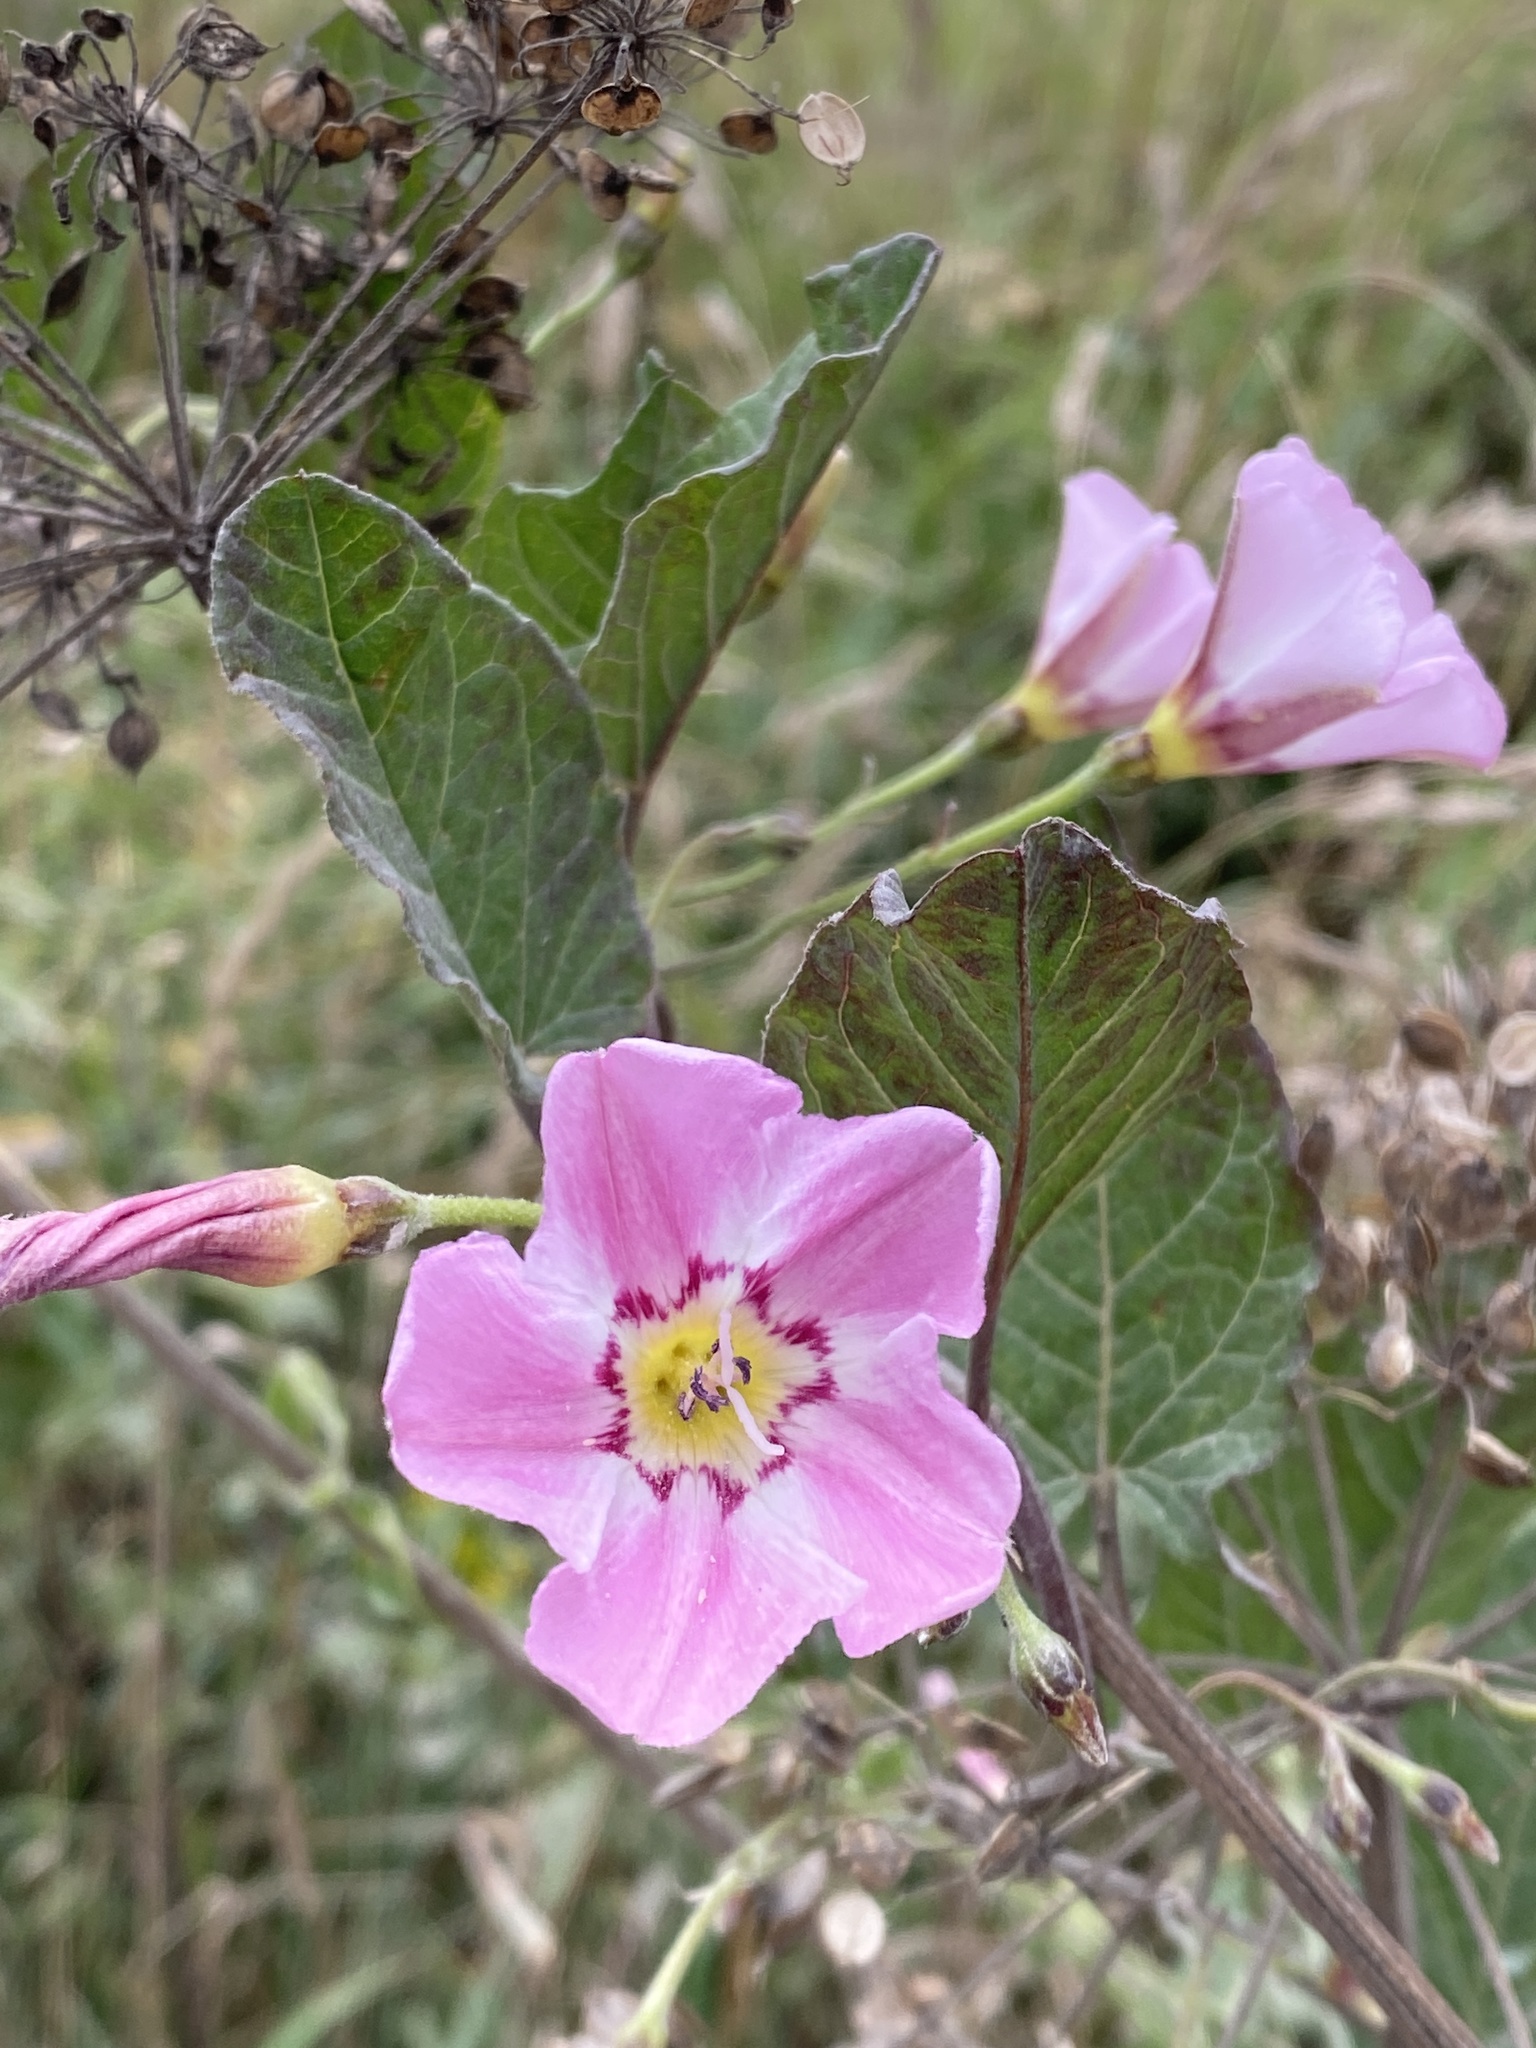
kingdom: Plantae
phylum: Tracheophyta
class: Magnoliopsida
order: Solanales
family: Convolvulaceae
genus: Convolvulus
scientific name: Convolvulus arvensis
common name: Field bindweed
